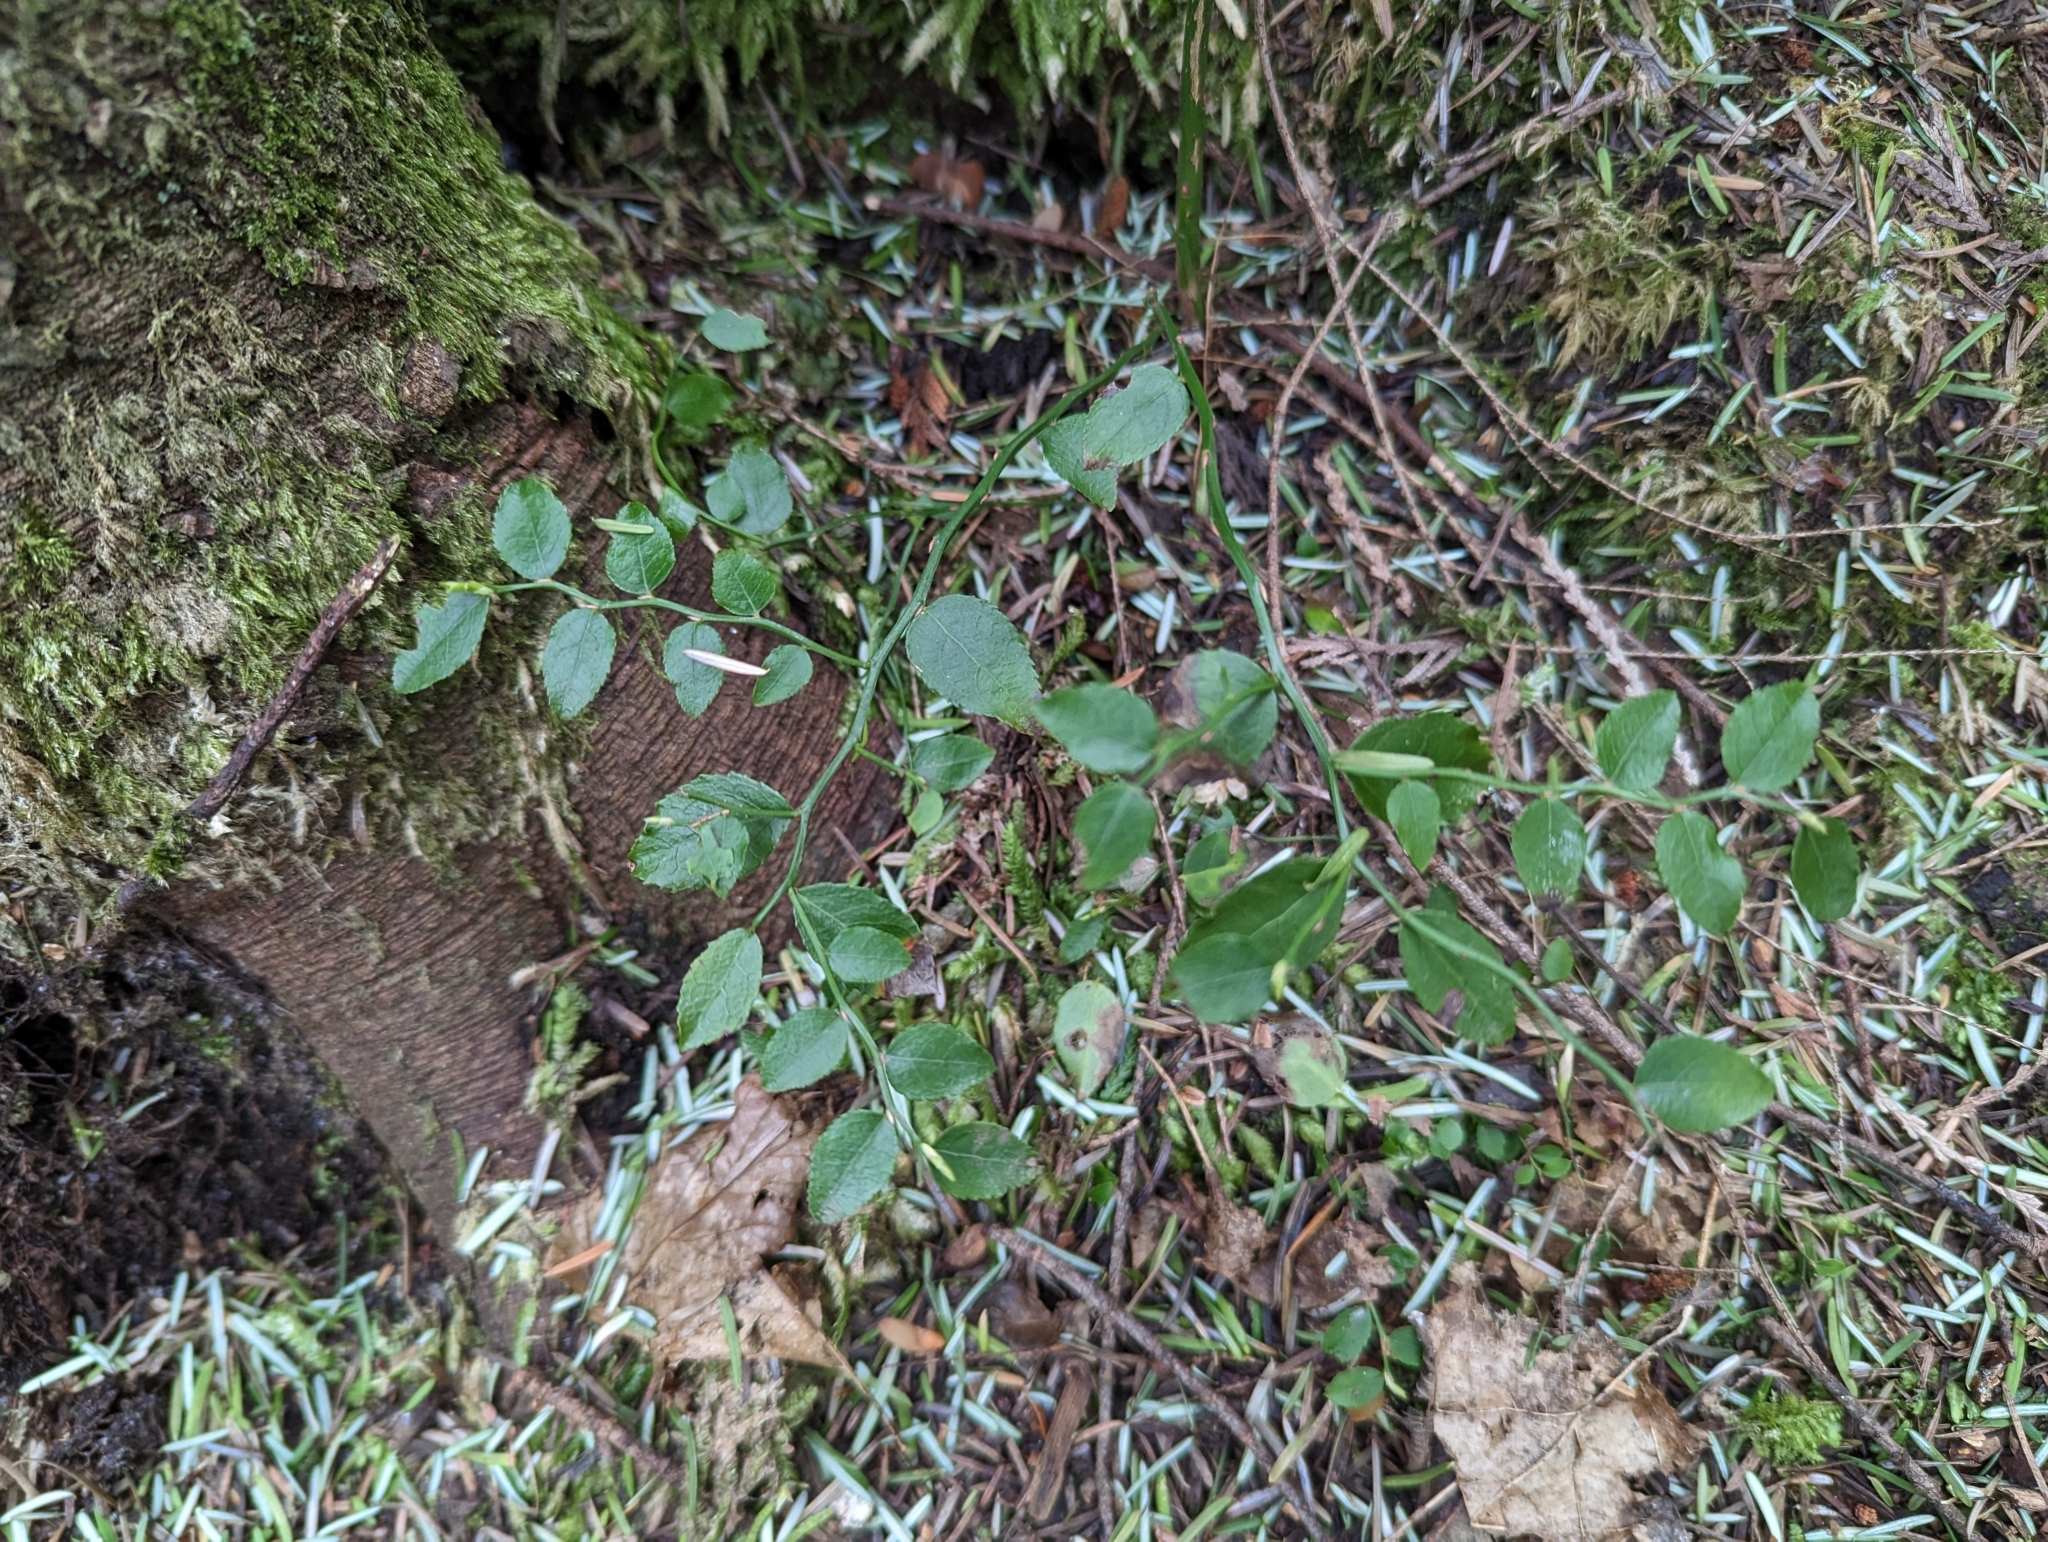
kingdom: Plantae
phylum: Tracheophyta
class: Magnoliopsida
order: Ericales
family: Ericaceae
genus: Vaccinium
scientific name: Vaccinium parvifolium
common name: Red-huckleberry
